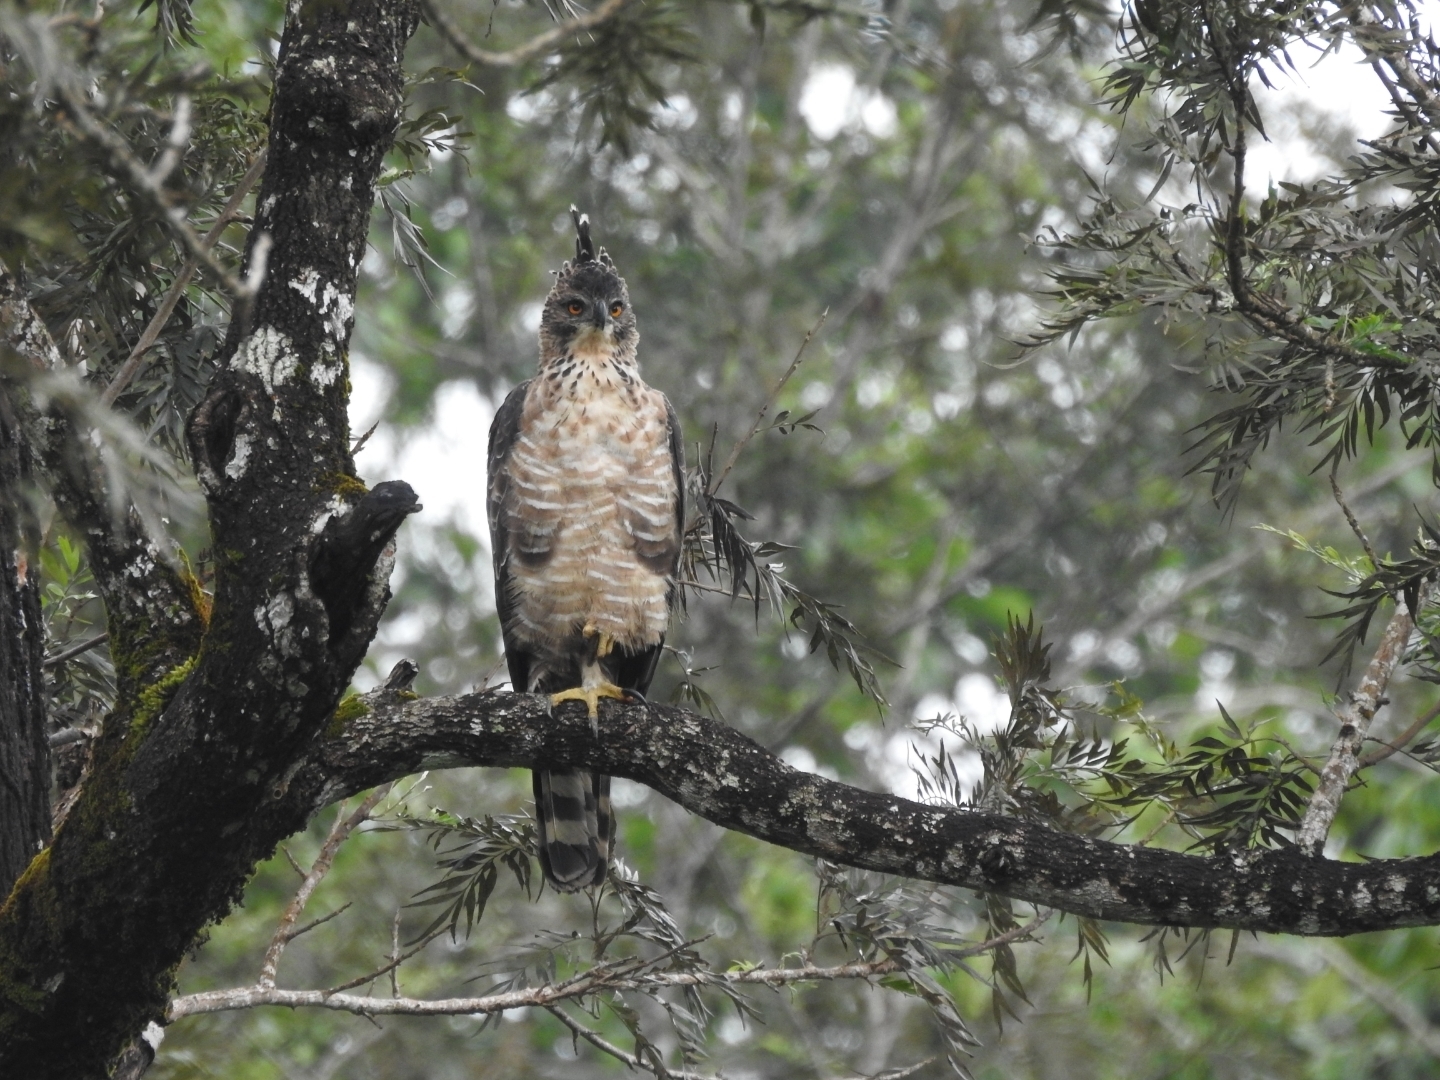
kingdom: Animalia
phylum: Chordata
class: Aves
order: Accipitriformes
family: Accipitridae
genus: Nisaetus
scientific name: Nisaetus kelaarti
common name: Legge's hawk-eagle
